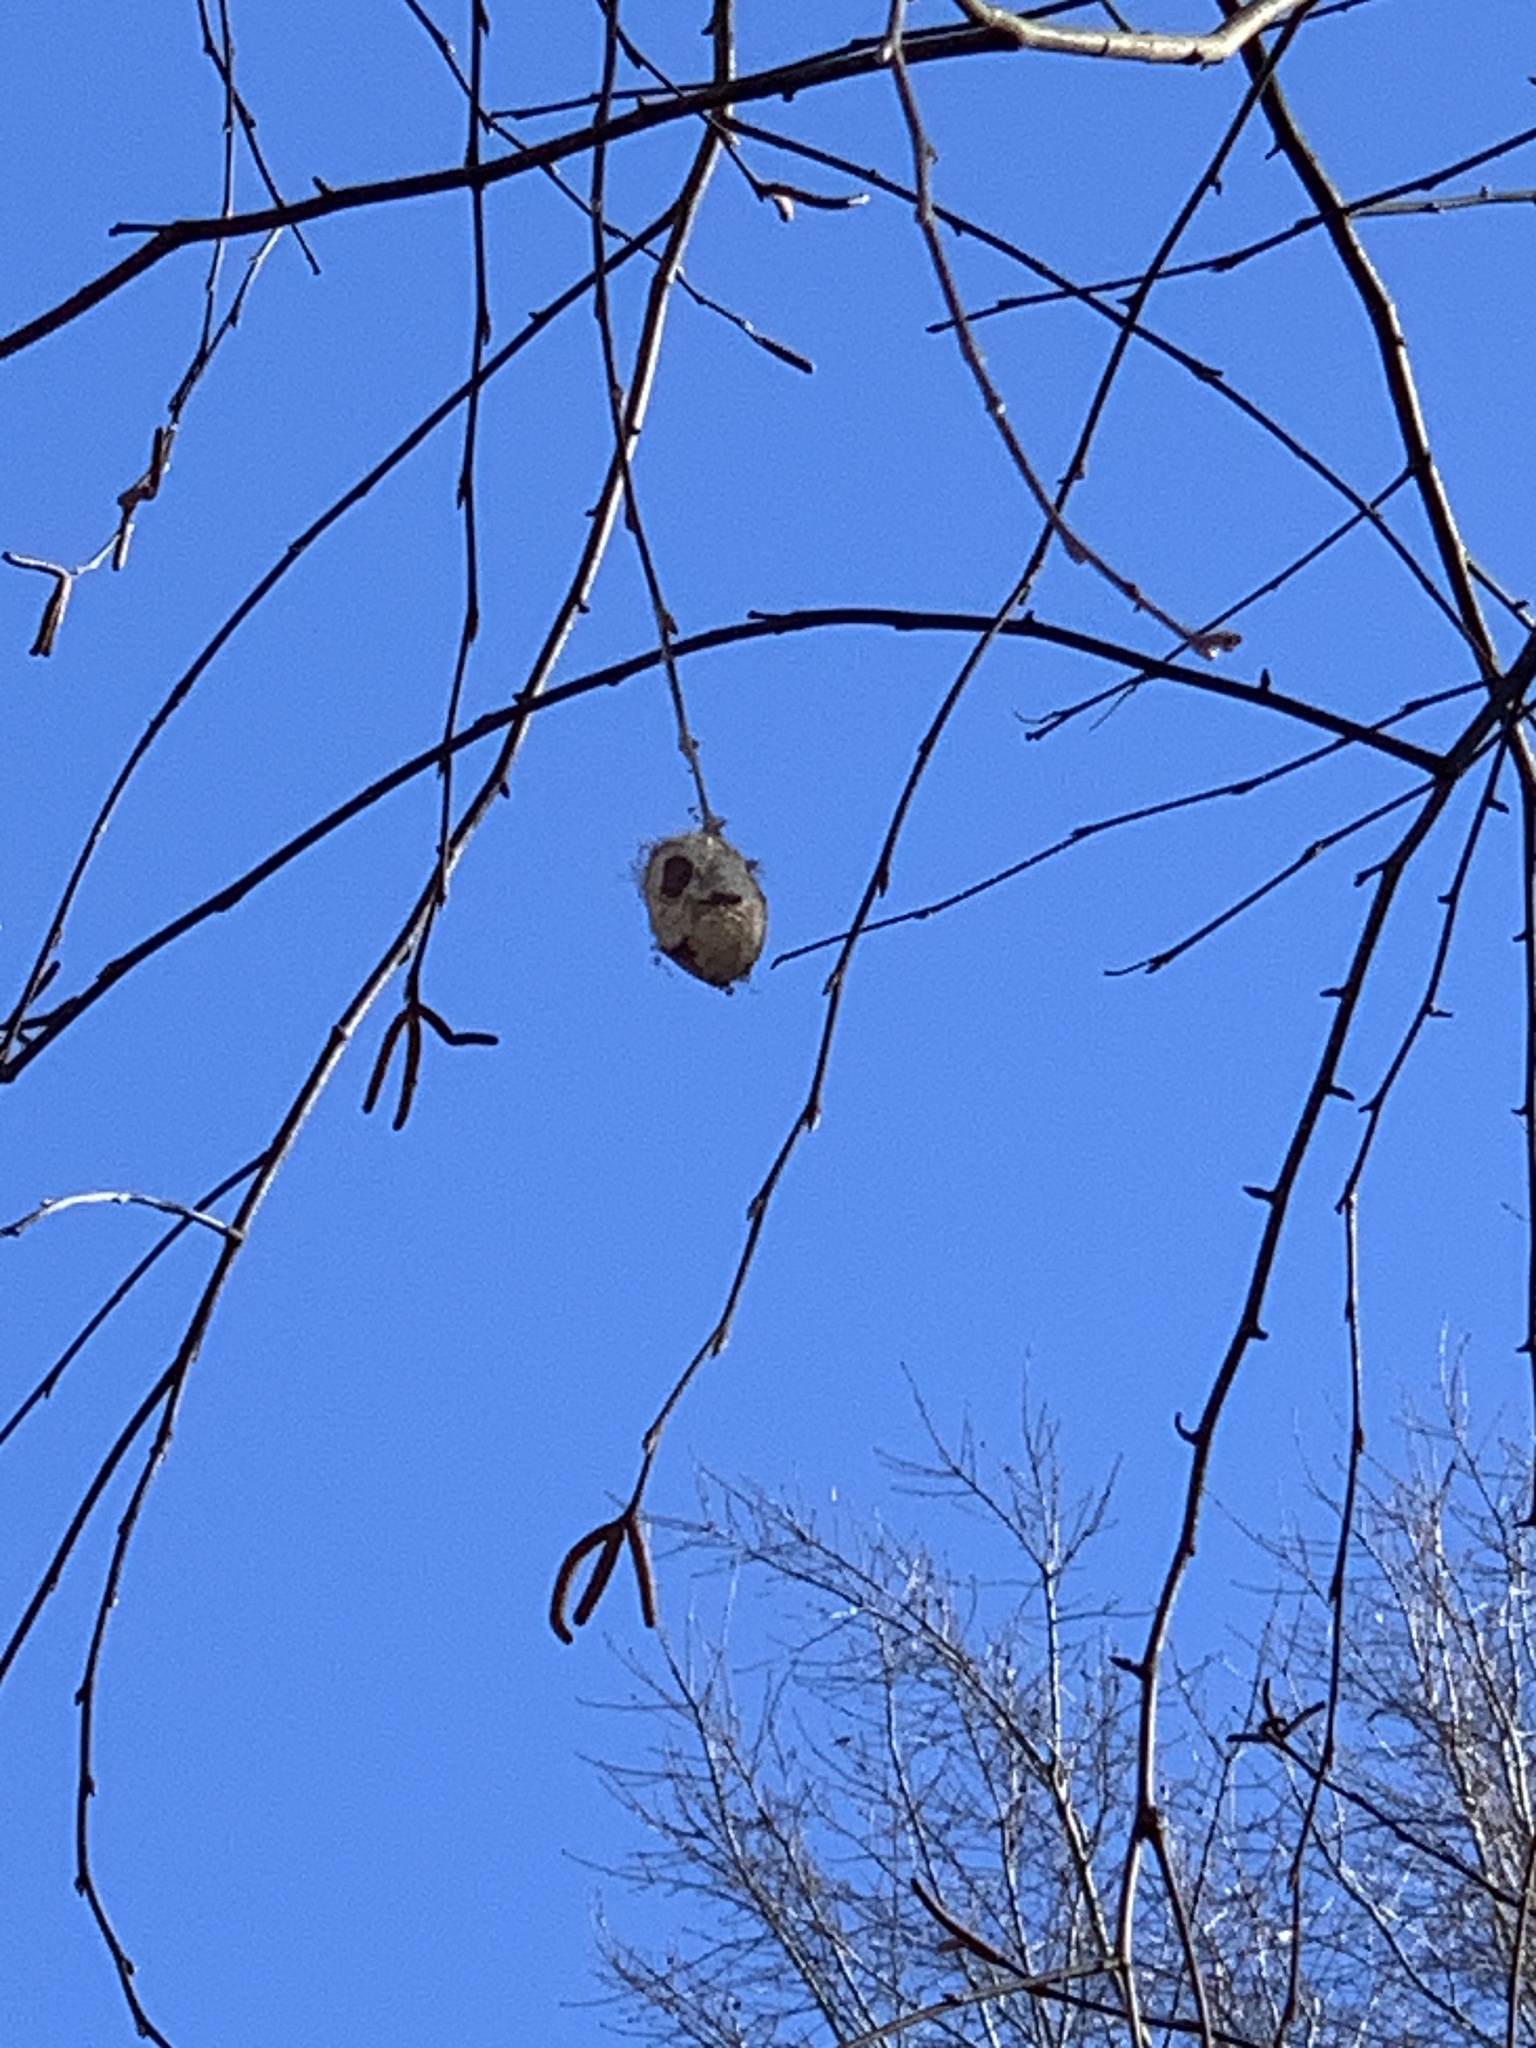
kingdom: Animalia
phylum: Arthropoda
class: Insecta
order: Lepidoptera
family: Saturniidae
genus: Antheraea
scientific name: Antheraea polyphemus
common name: Polyphemus moth
